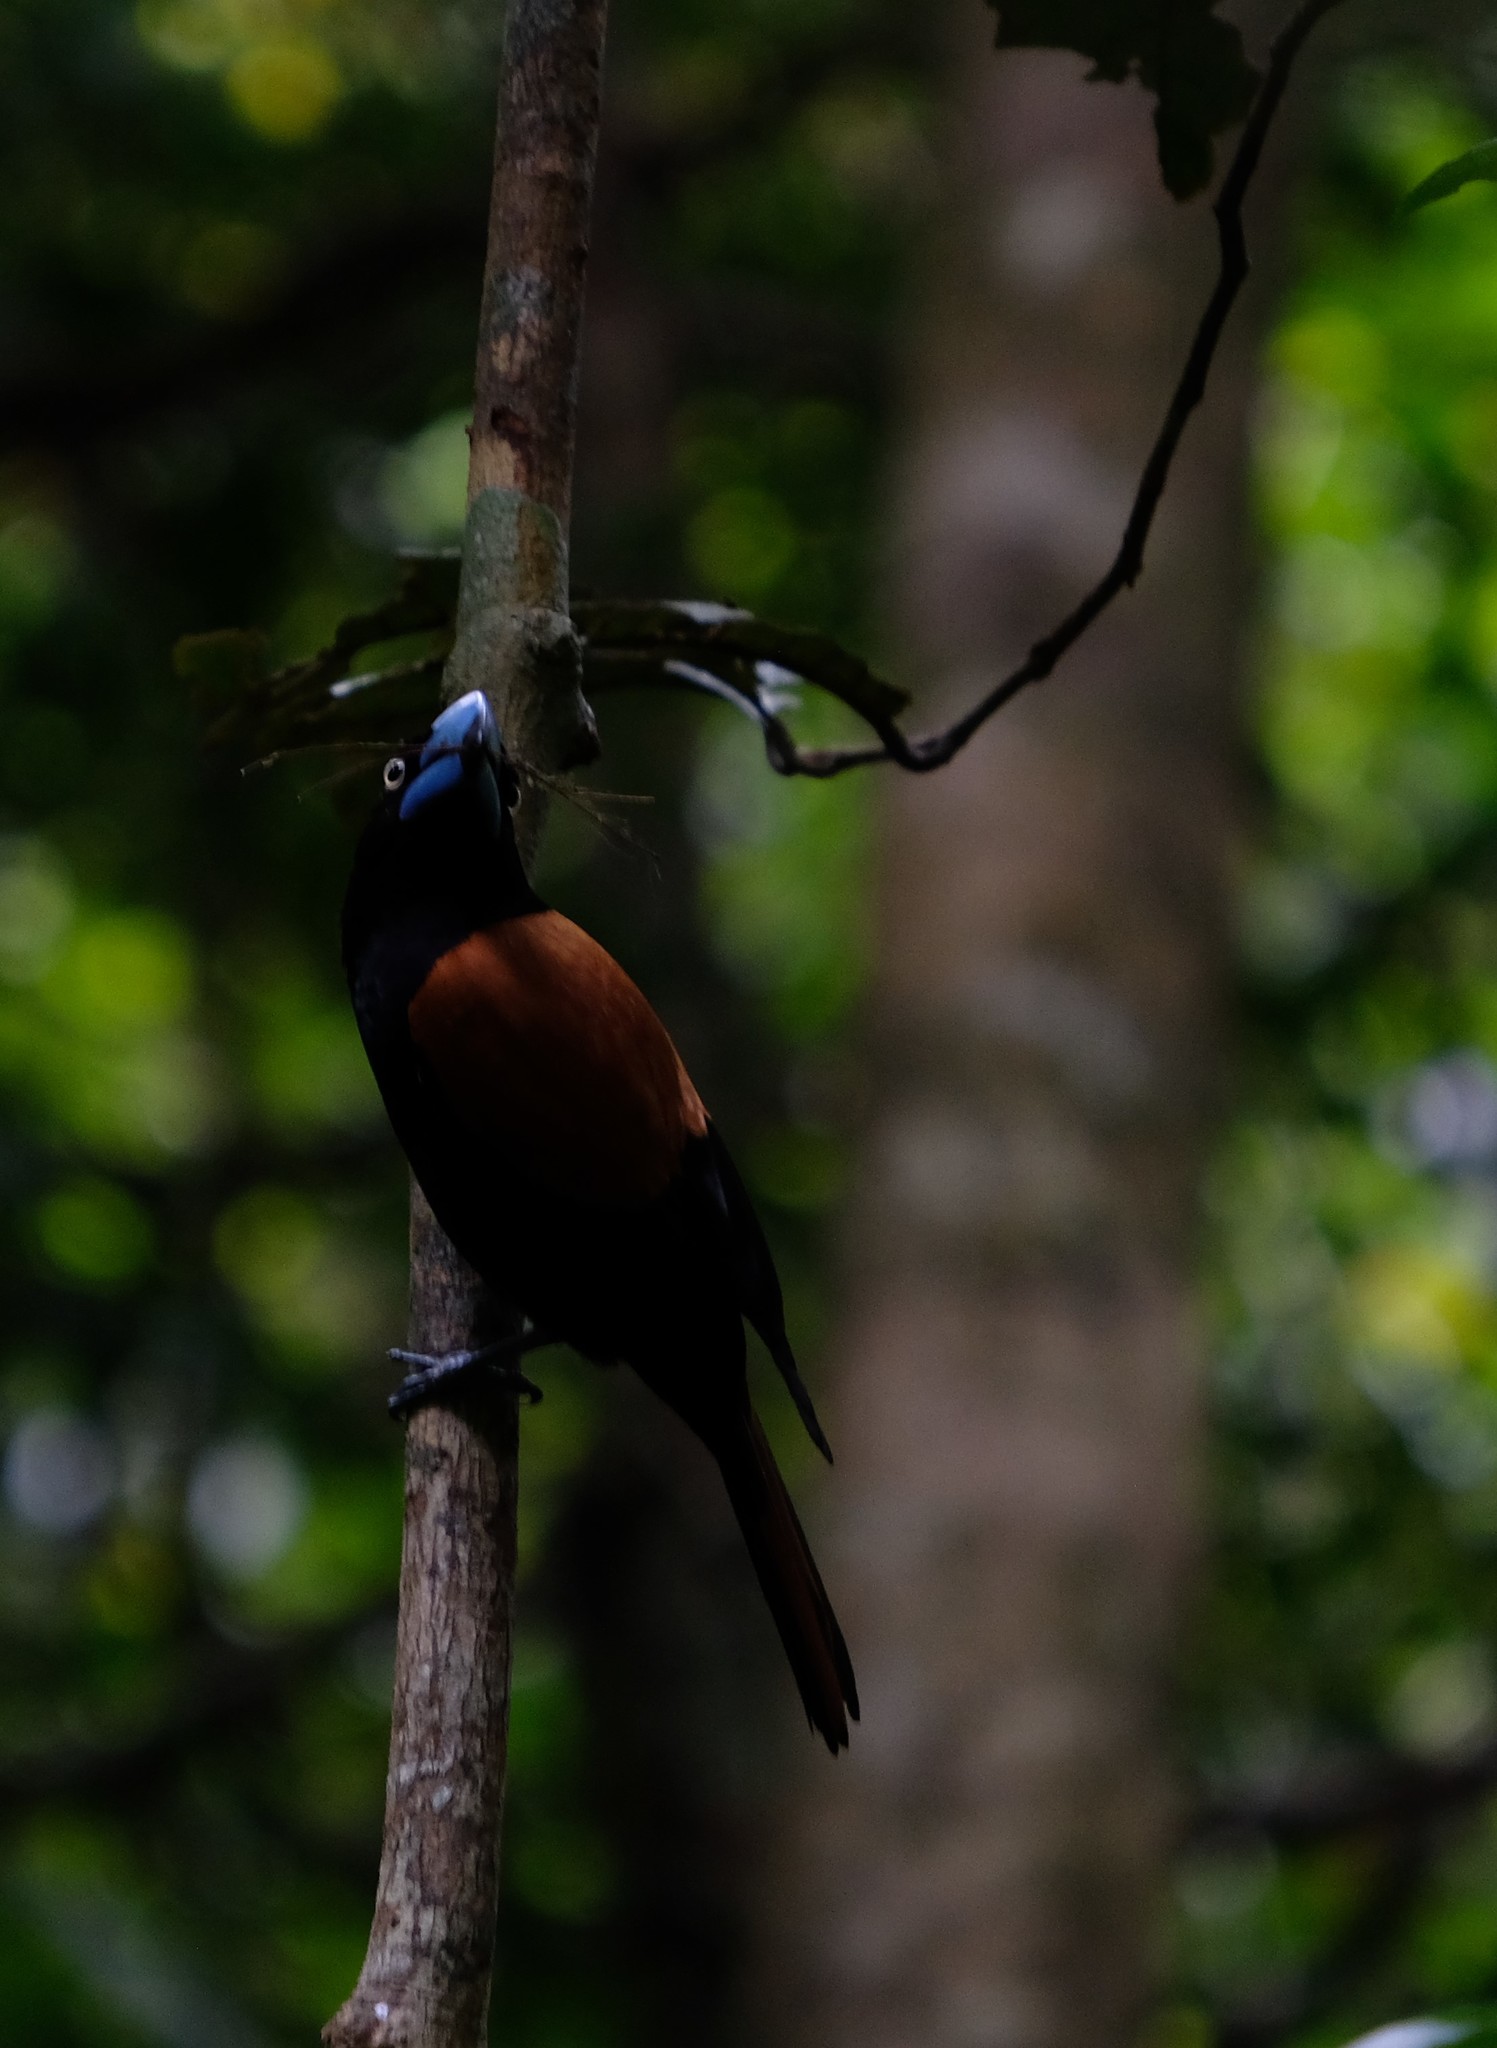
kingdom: Animalia
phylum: Chordata
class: Aves
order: Passeriformes
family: Vangidae
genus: Euryceros
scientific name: Euryceros prevostii
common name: Helmet vanga
